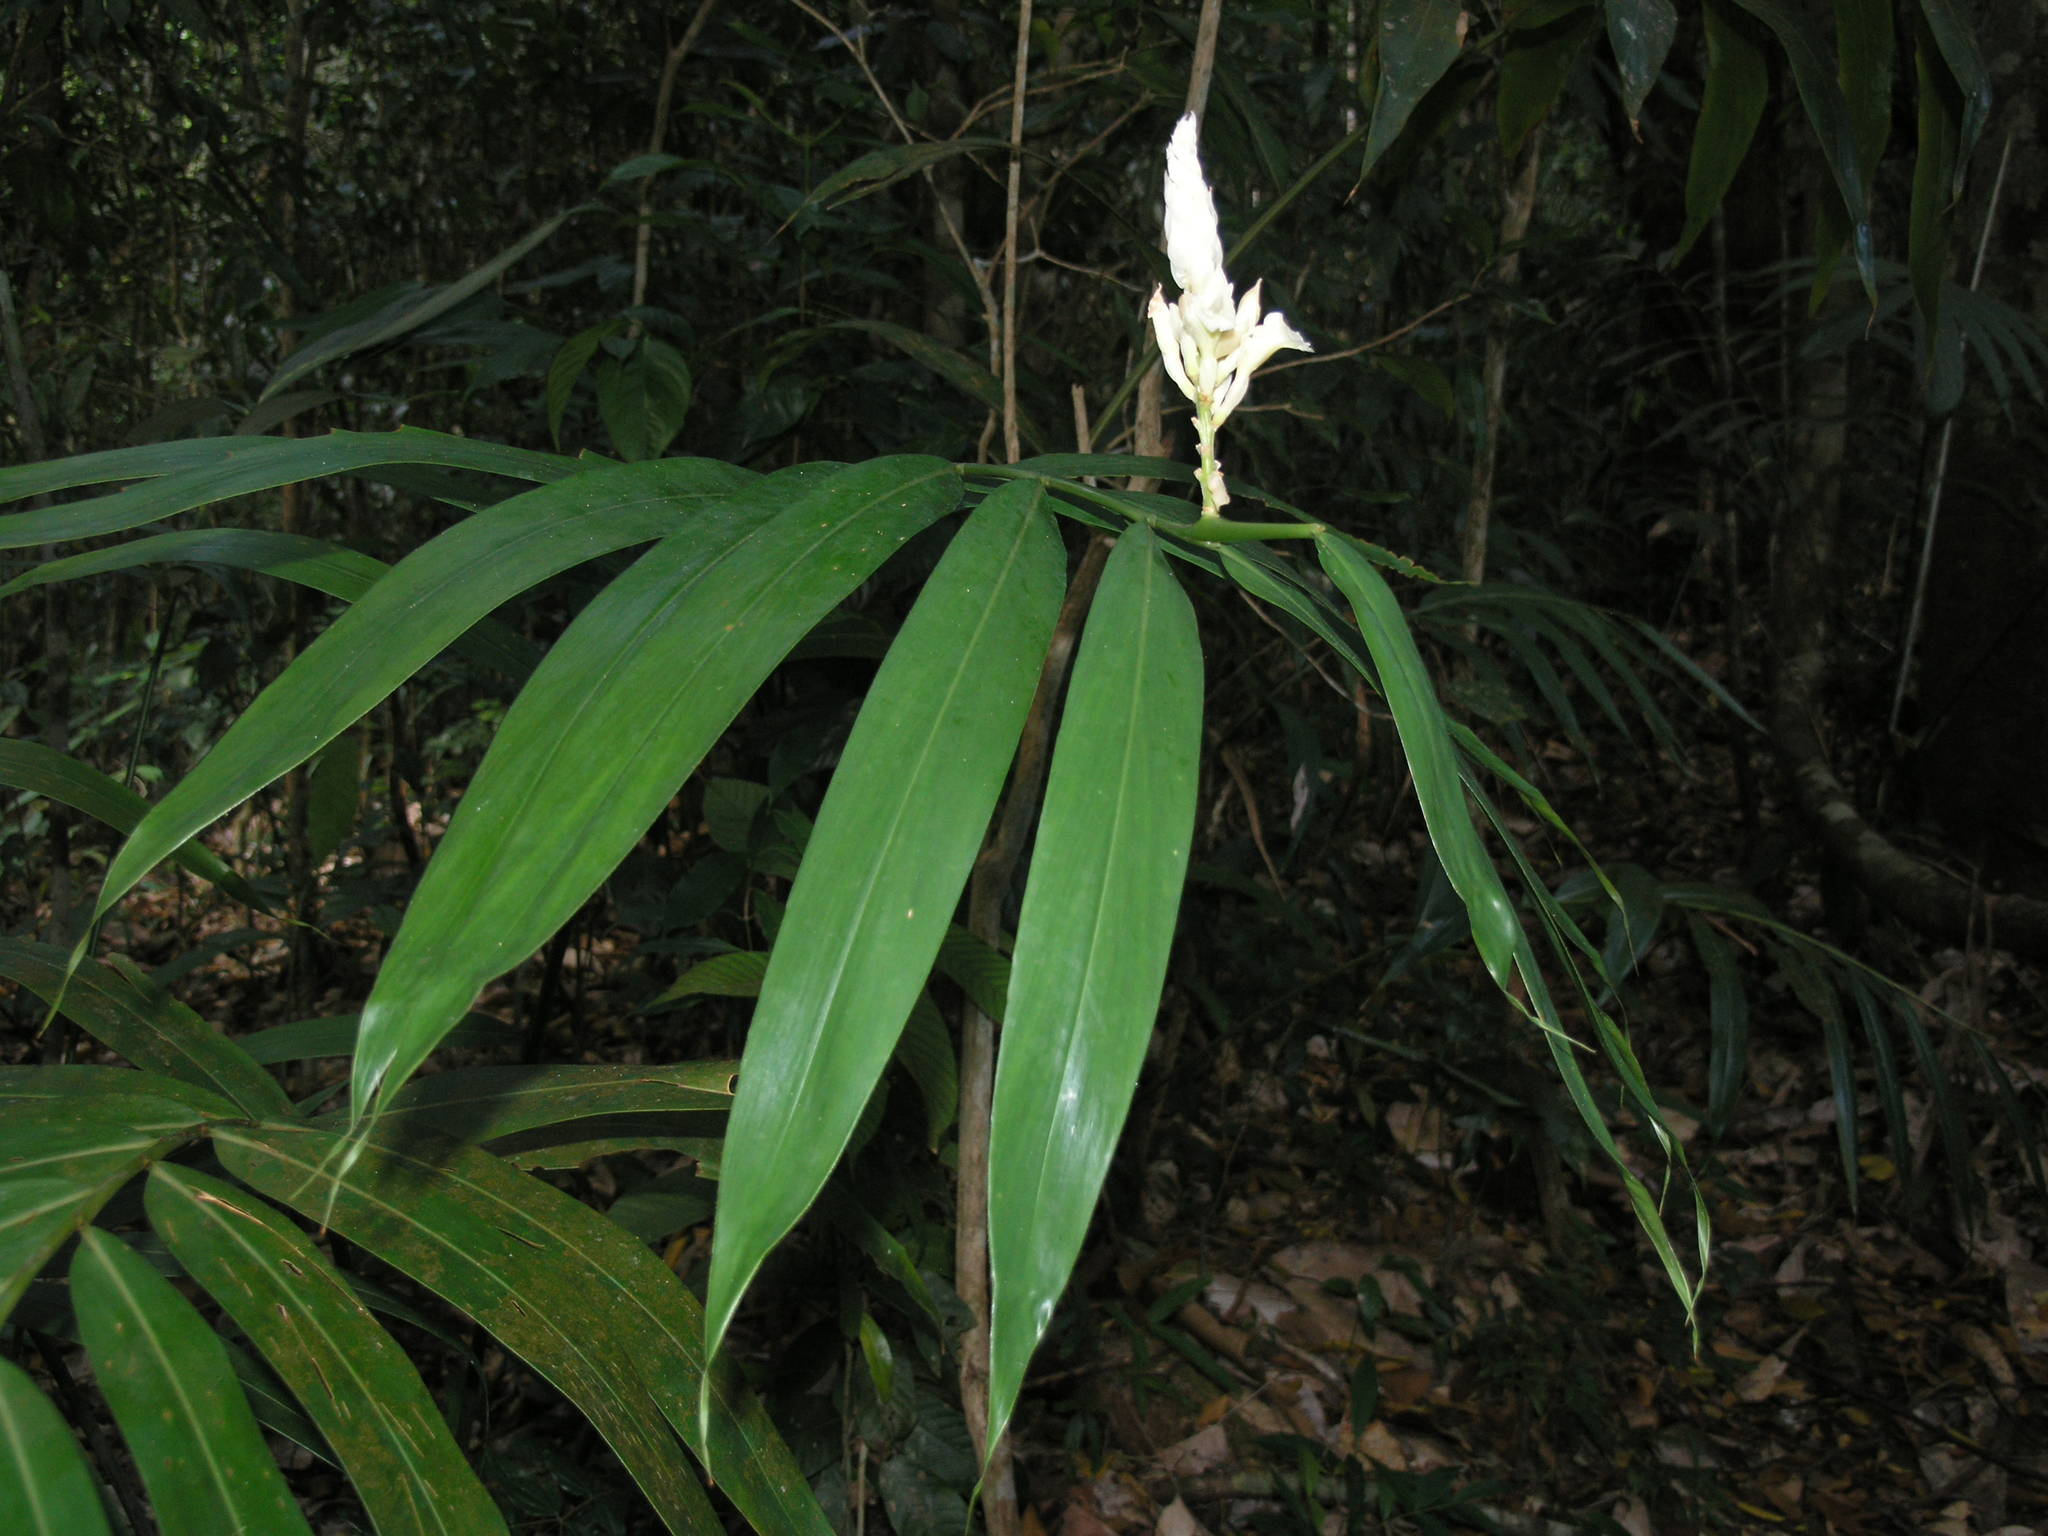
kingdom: Plantae
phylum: Tracheophyta
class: Liliopsida
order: Zingiberales
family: Zingiberaceae
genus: Alpinia
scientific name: Alpinia oxymitra
